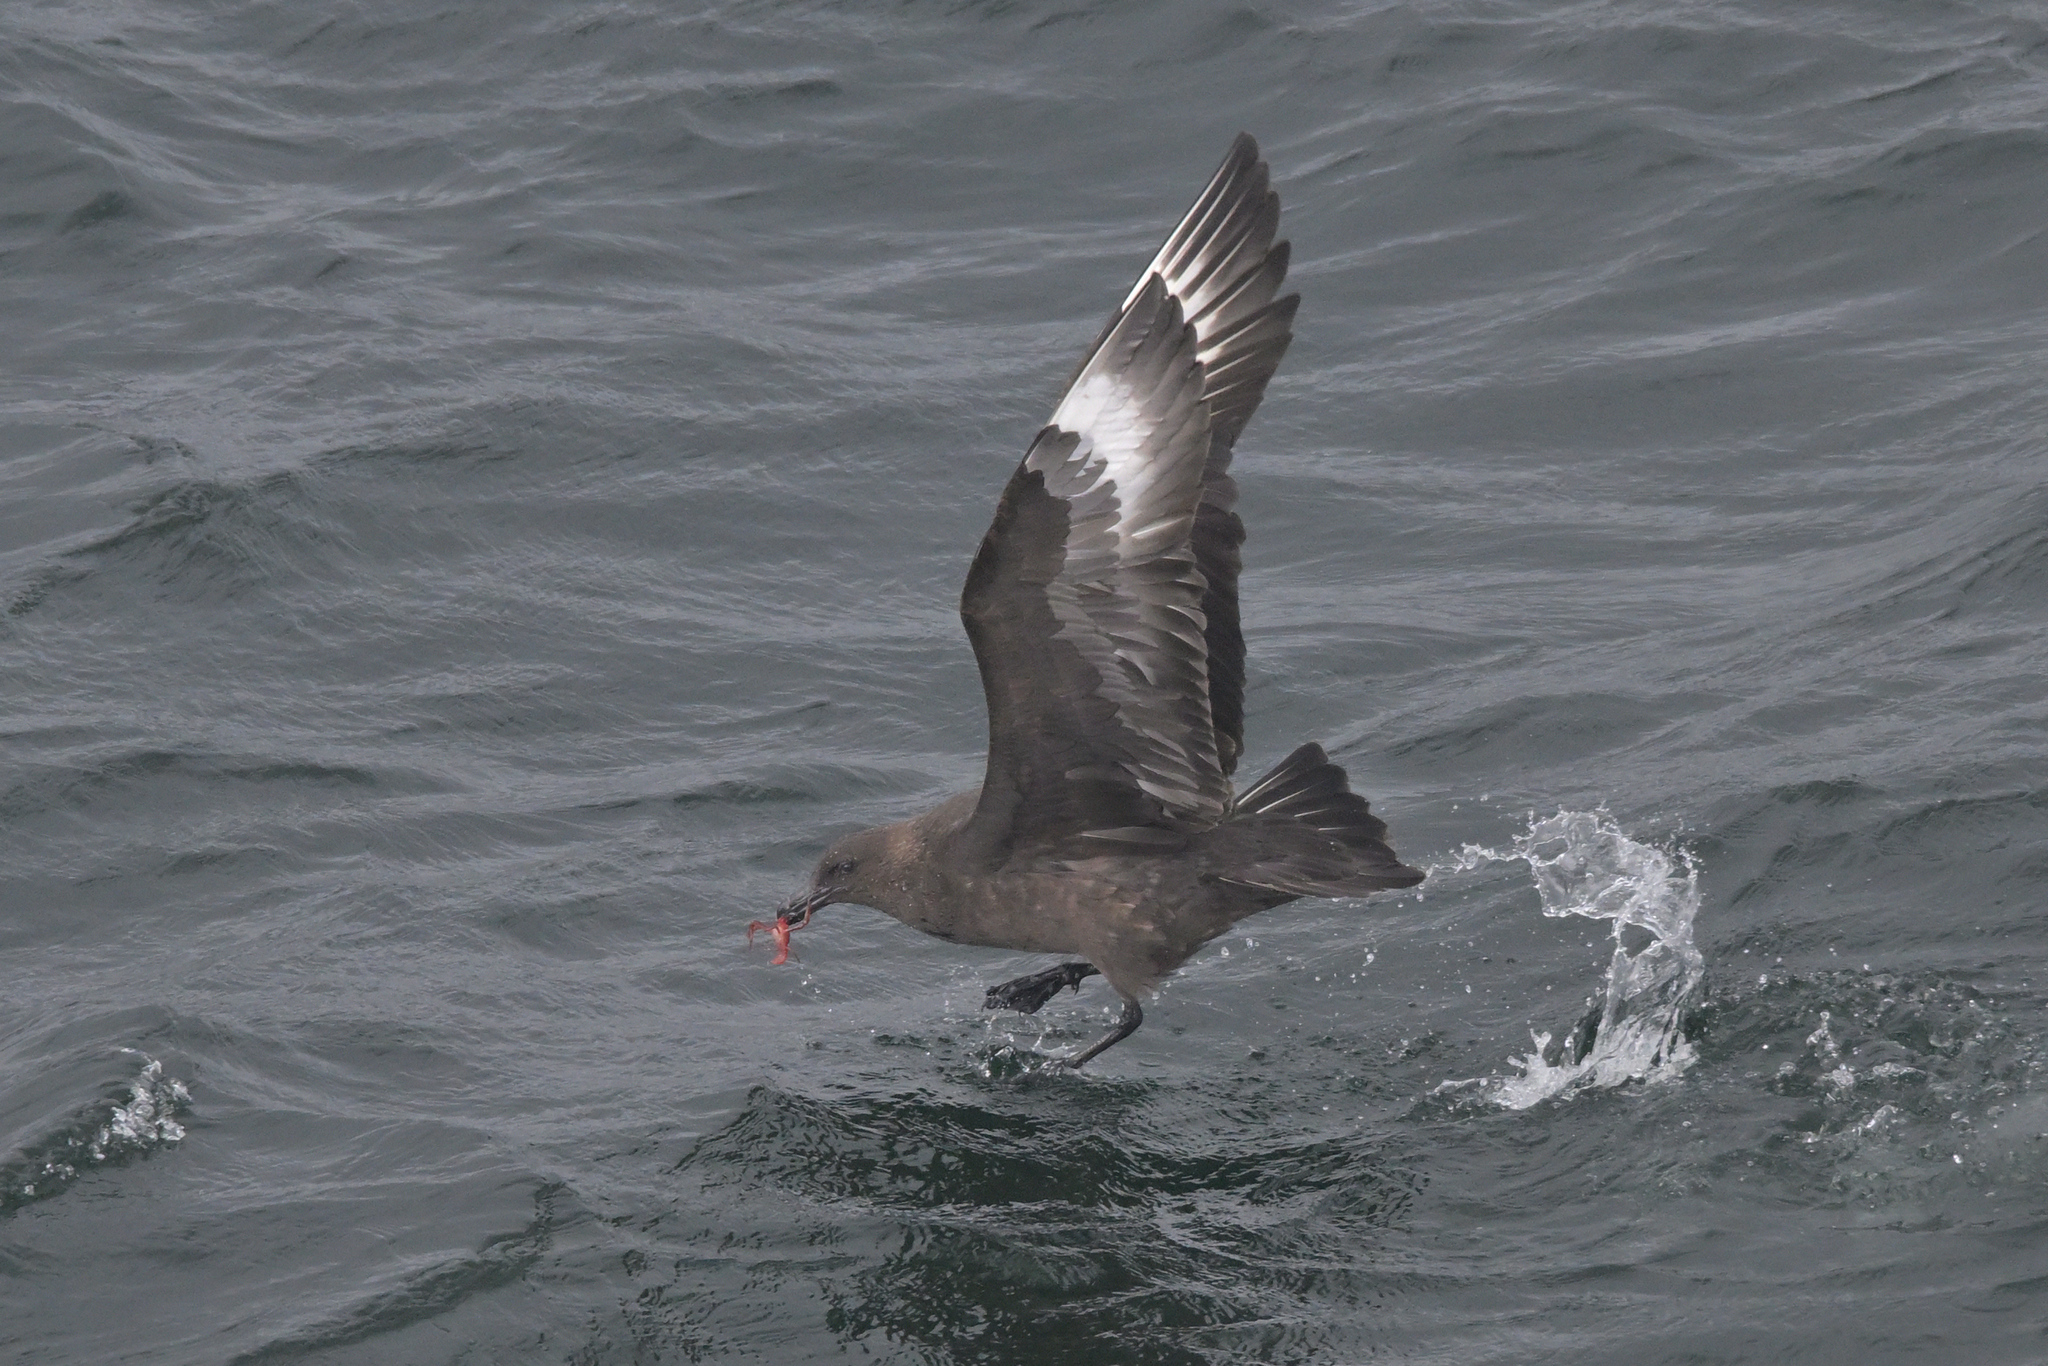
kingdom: Animalia
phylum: Chordata
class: Aves
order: Charadriiformes
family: Stercorariidae
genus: Stercorarius
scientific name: Stercorarius antarcticus
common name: Brown skua
